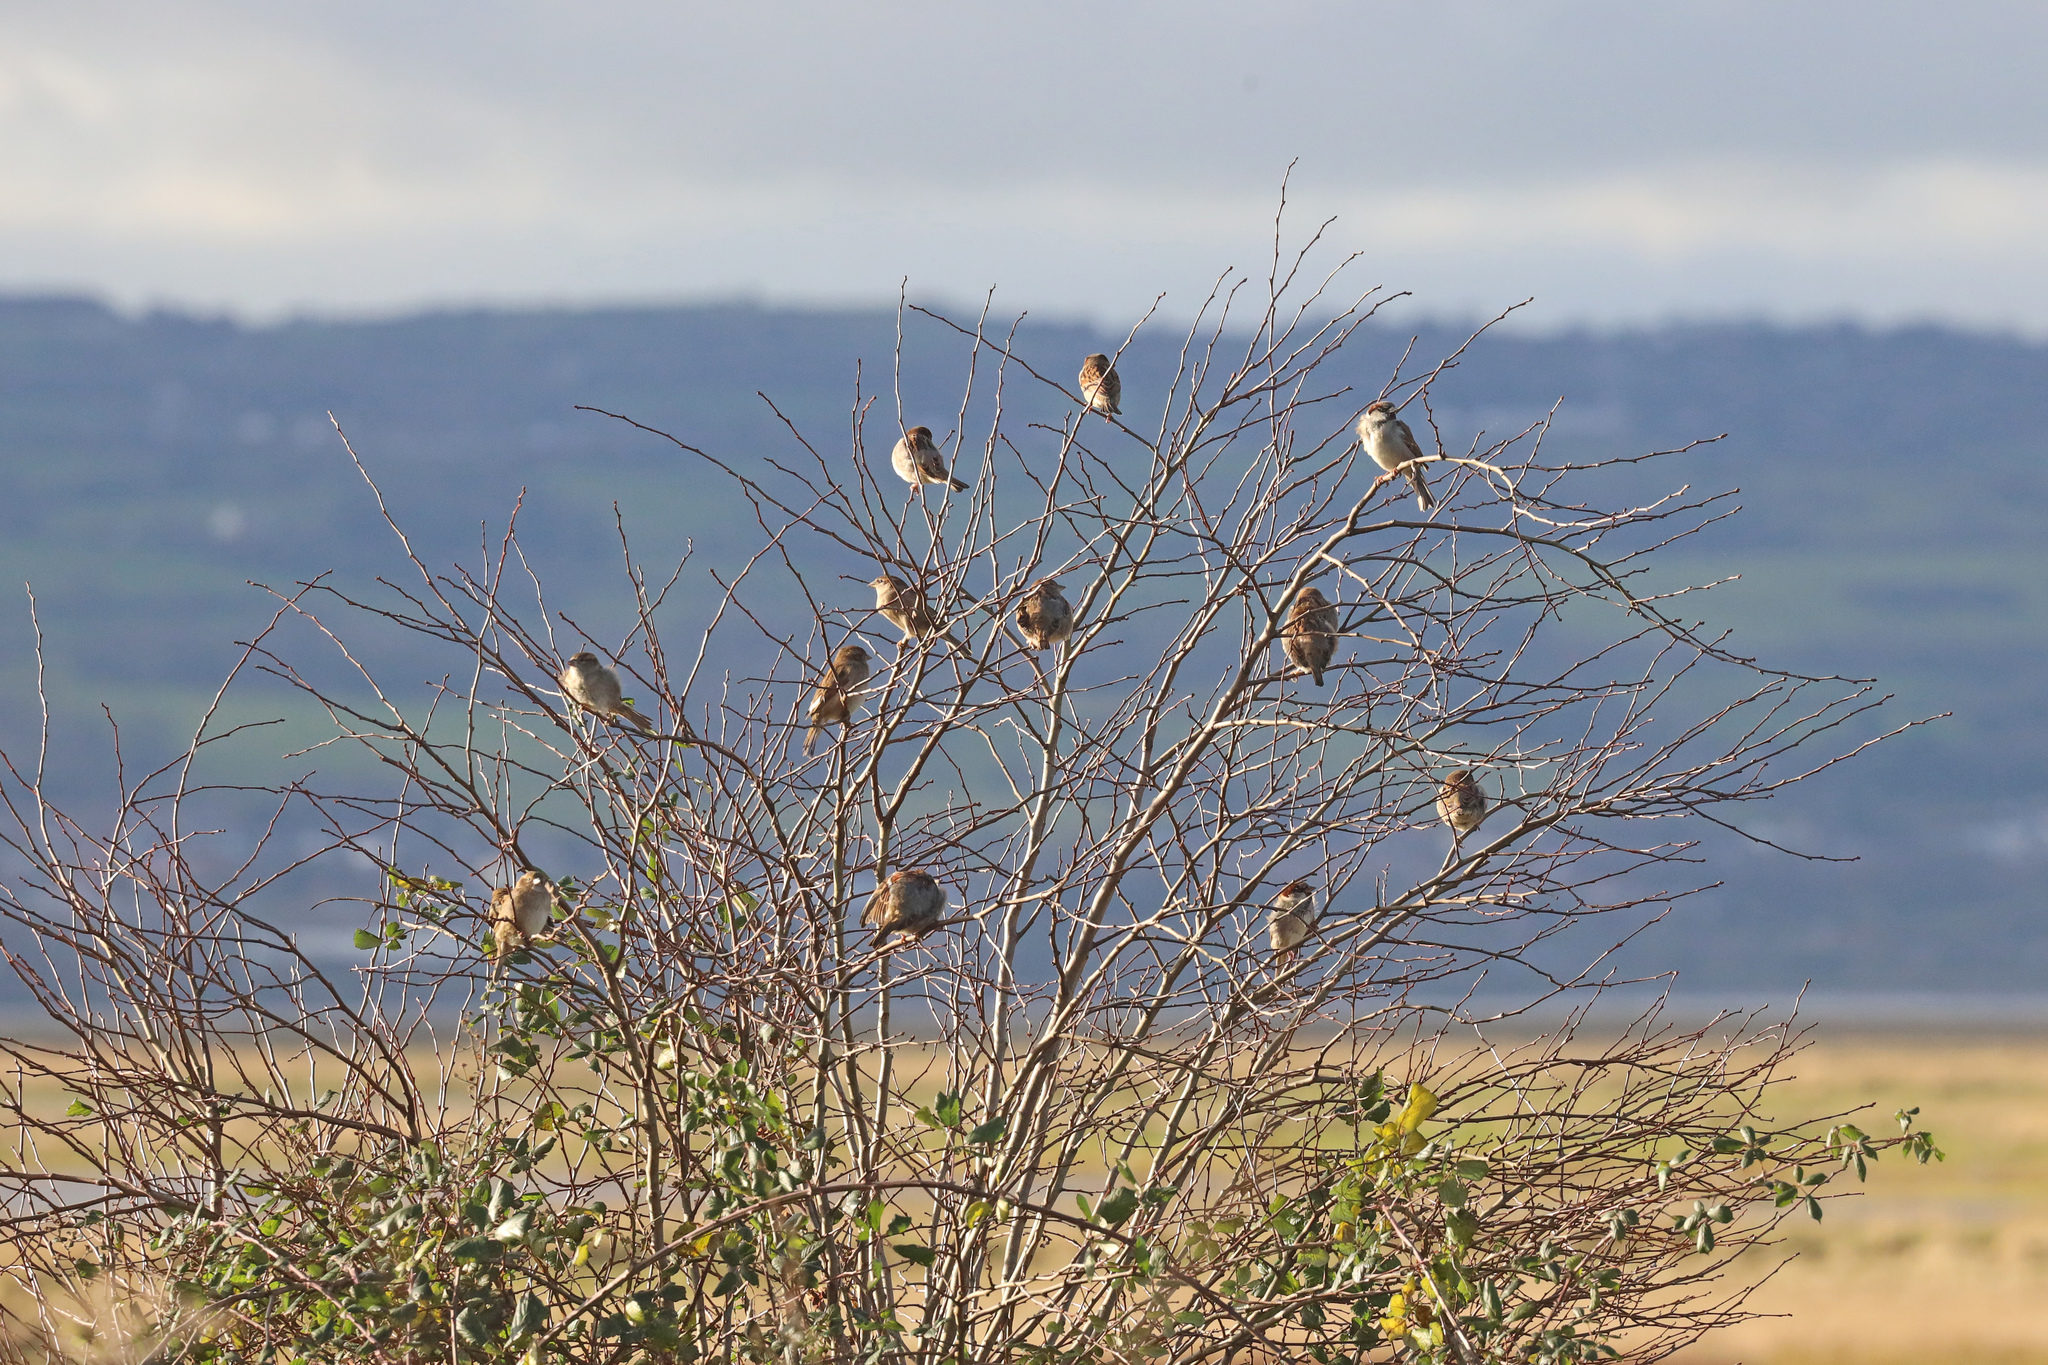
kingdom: Animalia
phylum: Chordata
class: Aves
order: Passeriformes
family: Passeridae
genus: Passer
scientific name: Passer domesticus
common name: House sparrow
